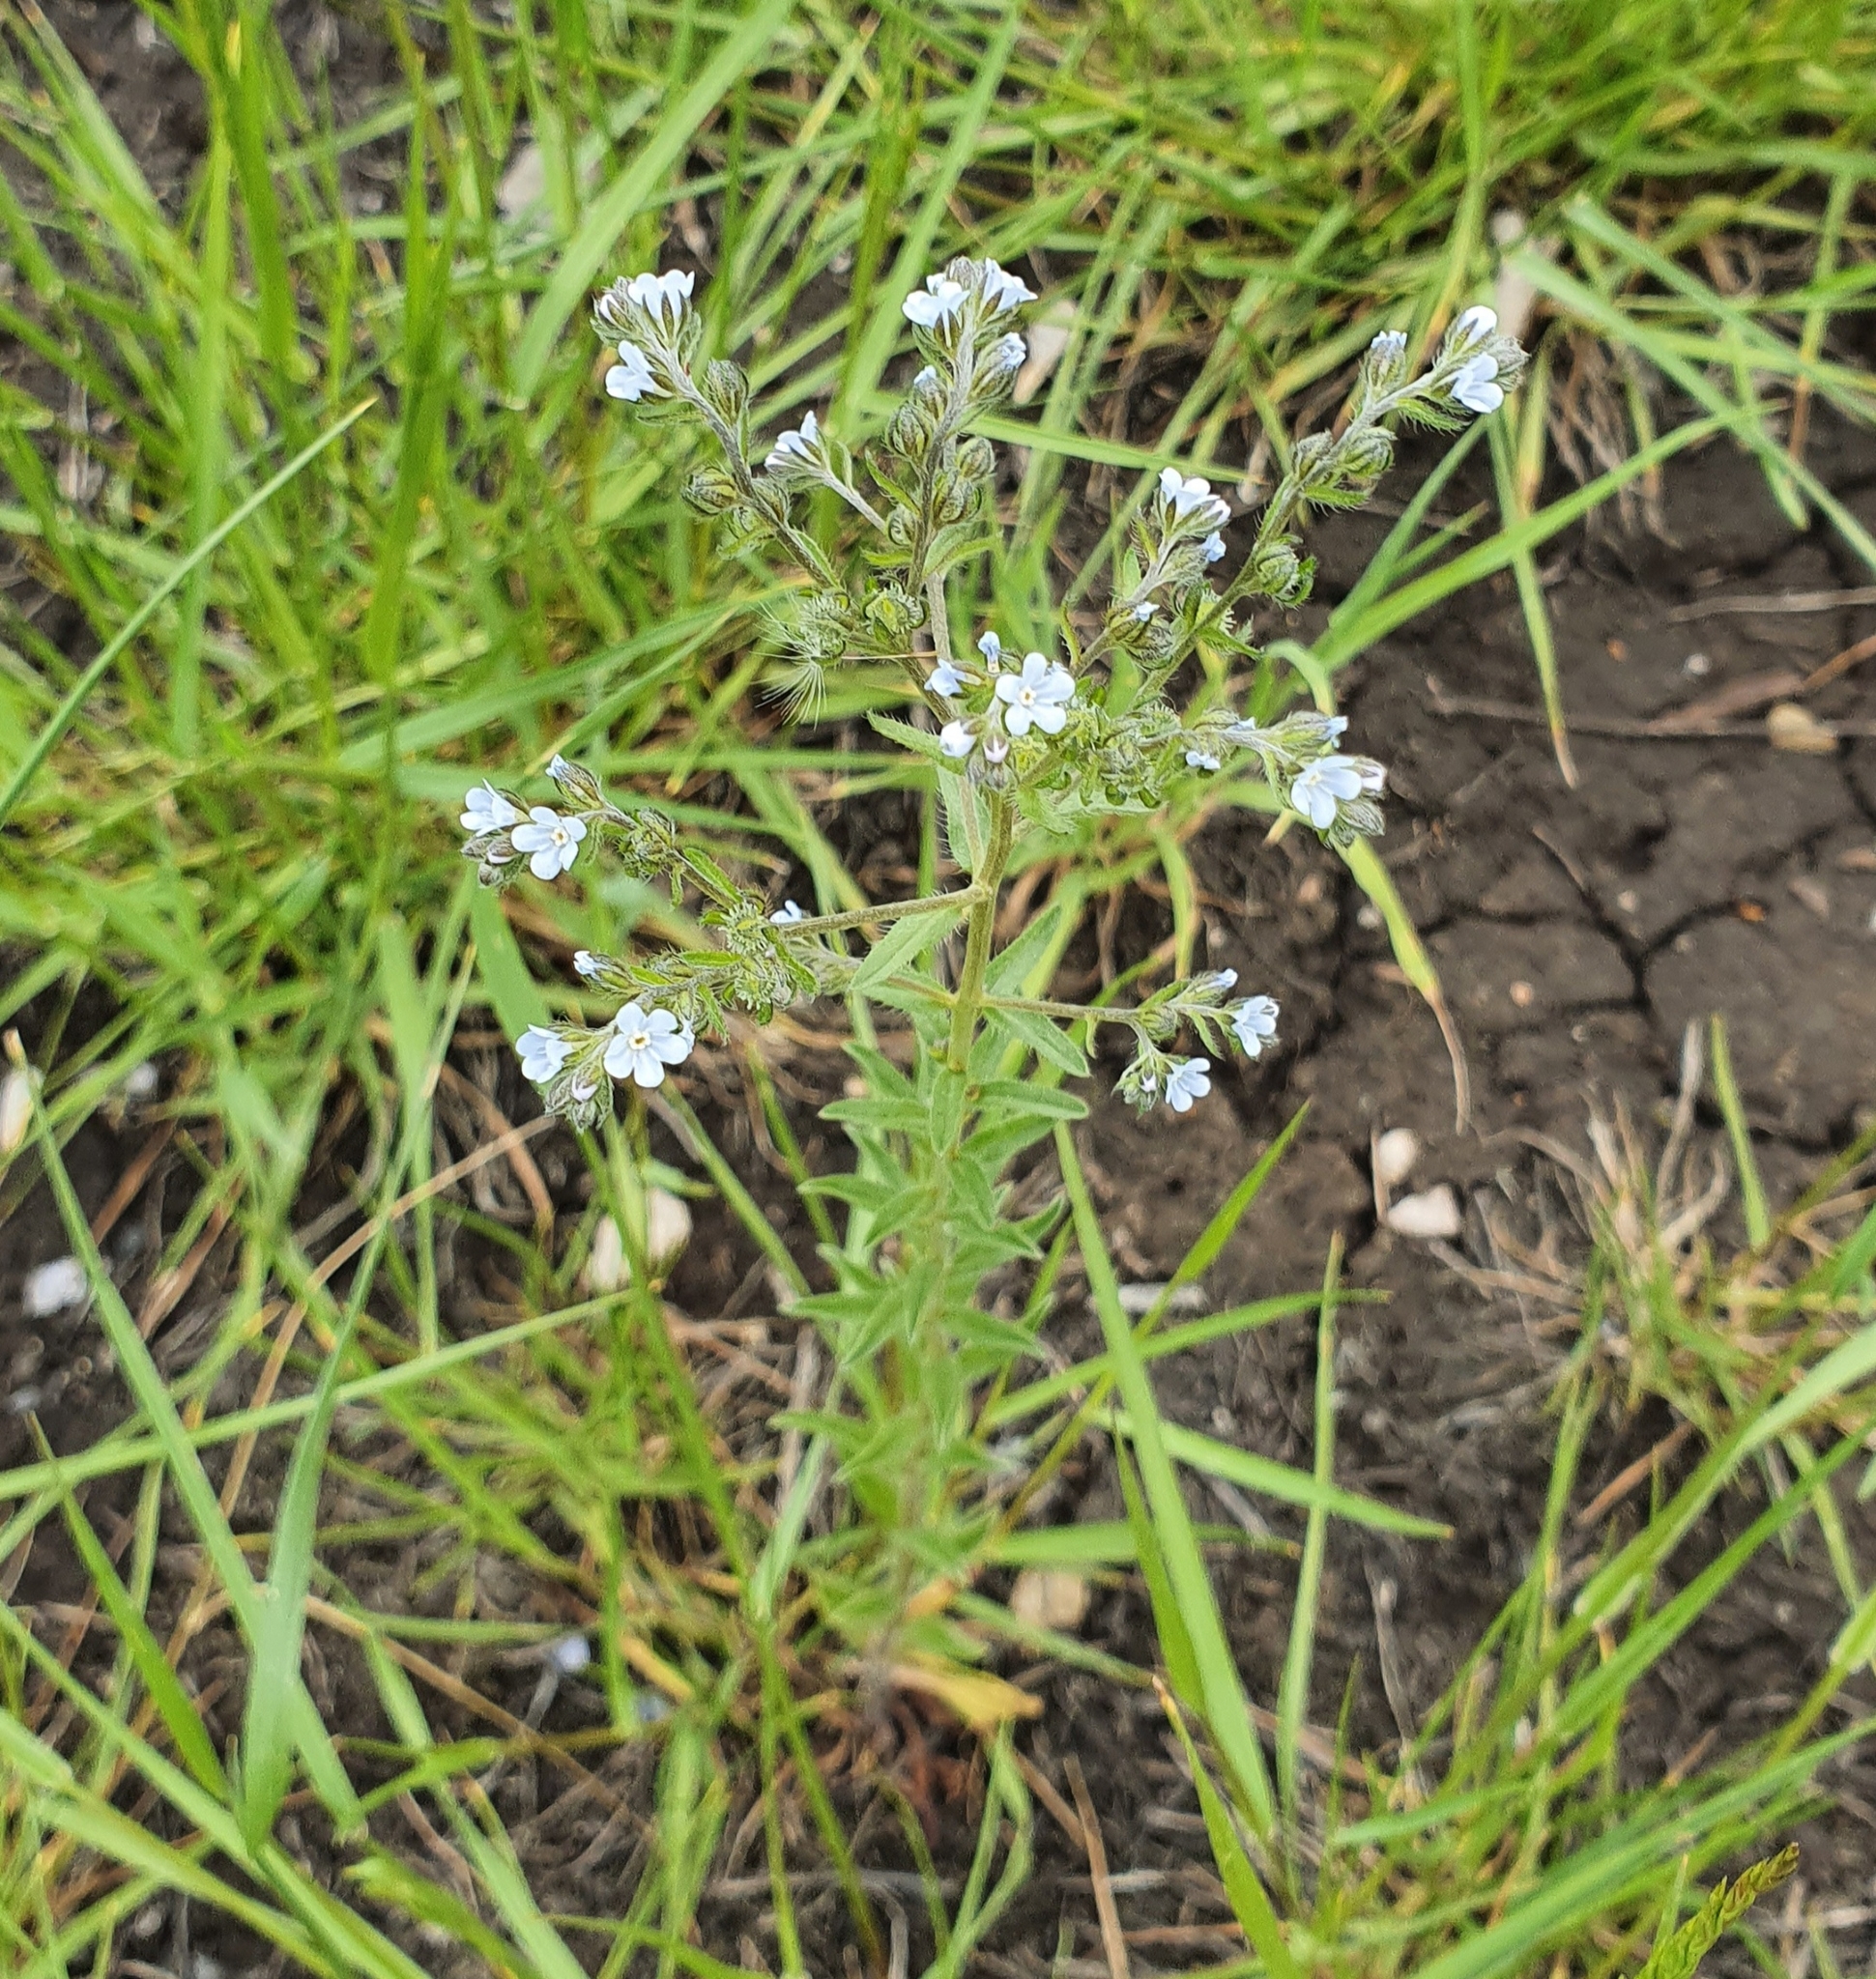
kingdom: Plantae
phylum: Tracheophyta
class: Magnoliopsida
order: Boraginales
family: Boraginaceae
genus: Lappula
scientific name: Lappula squarrosa
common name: European stickseed
